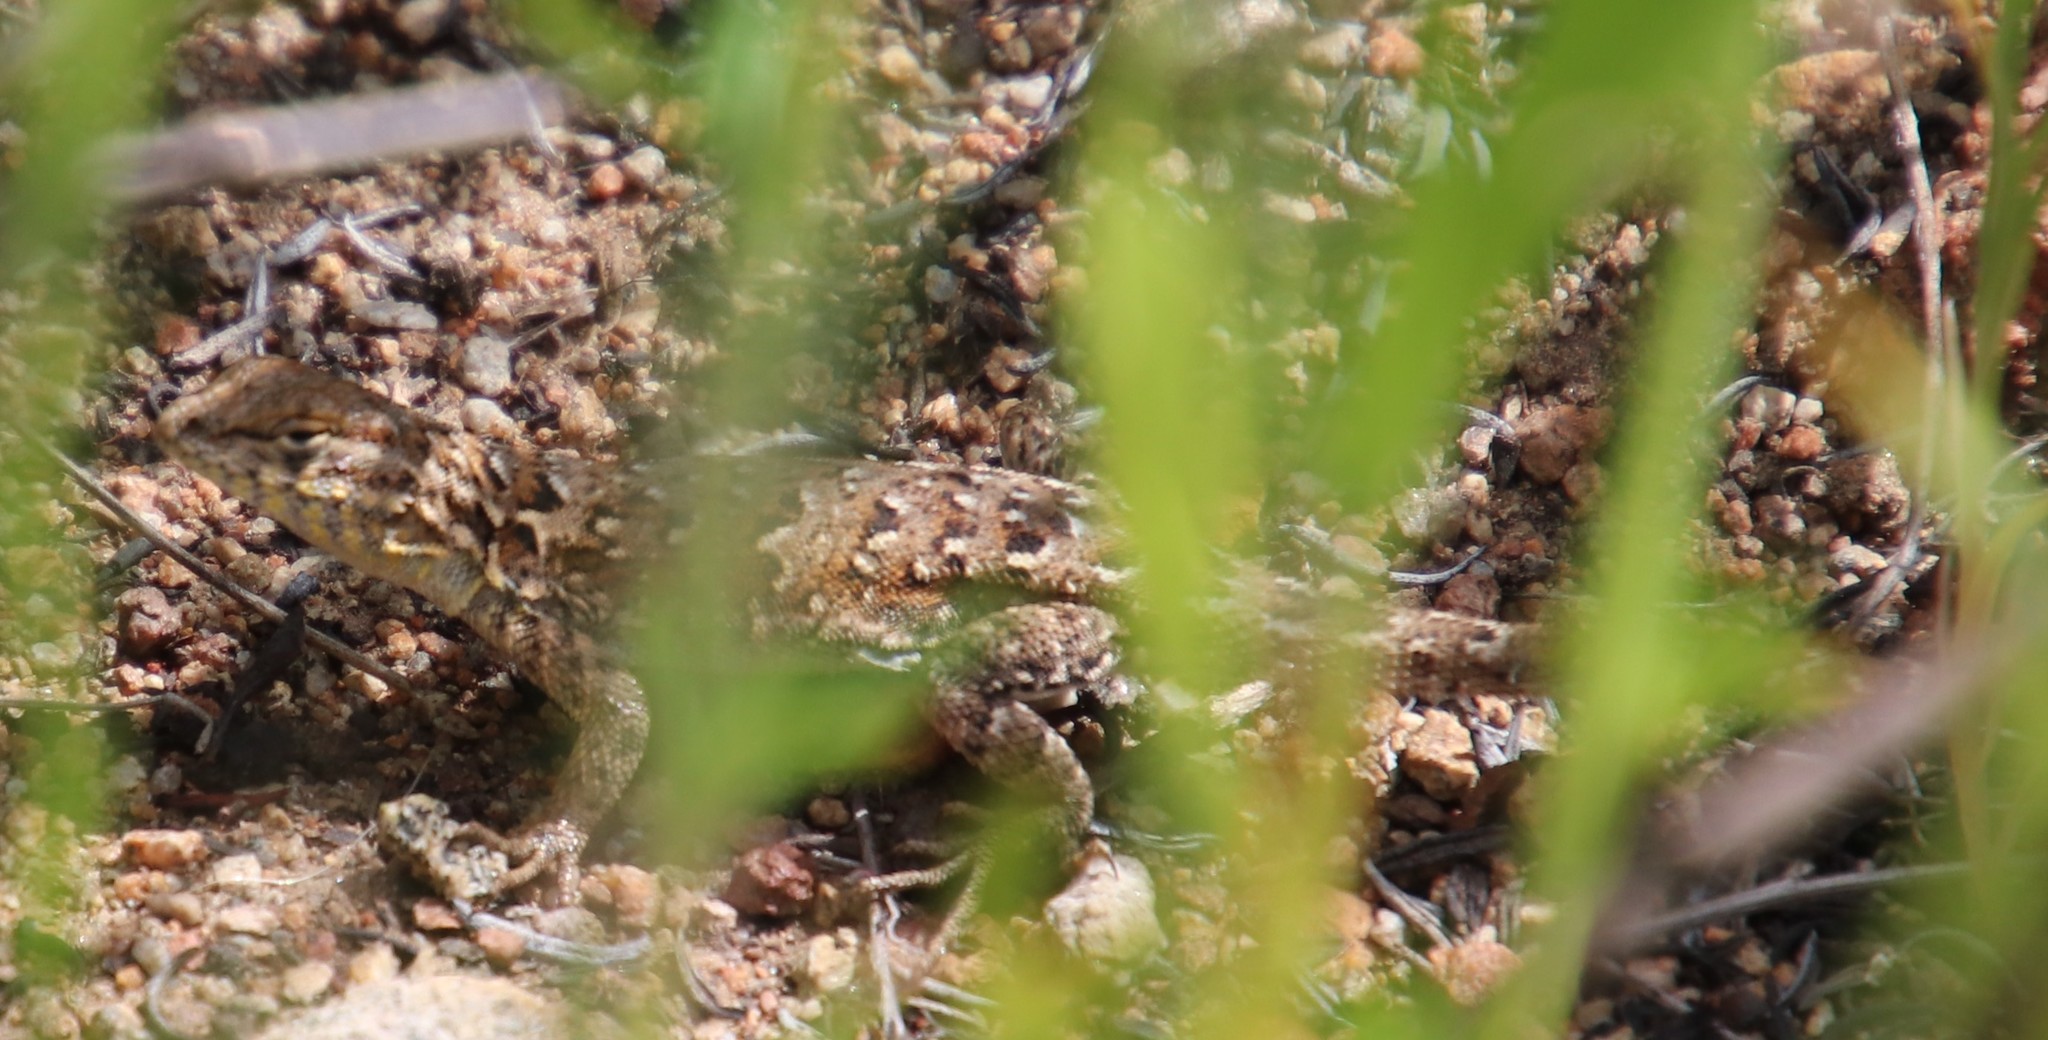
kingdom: Animalia
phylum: Chordata
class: Squamata
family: Phrynosomatidae
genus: Uta
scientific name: Uta stansburiana
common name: Side-blotched lizard
